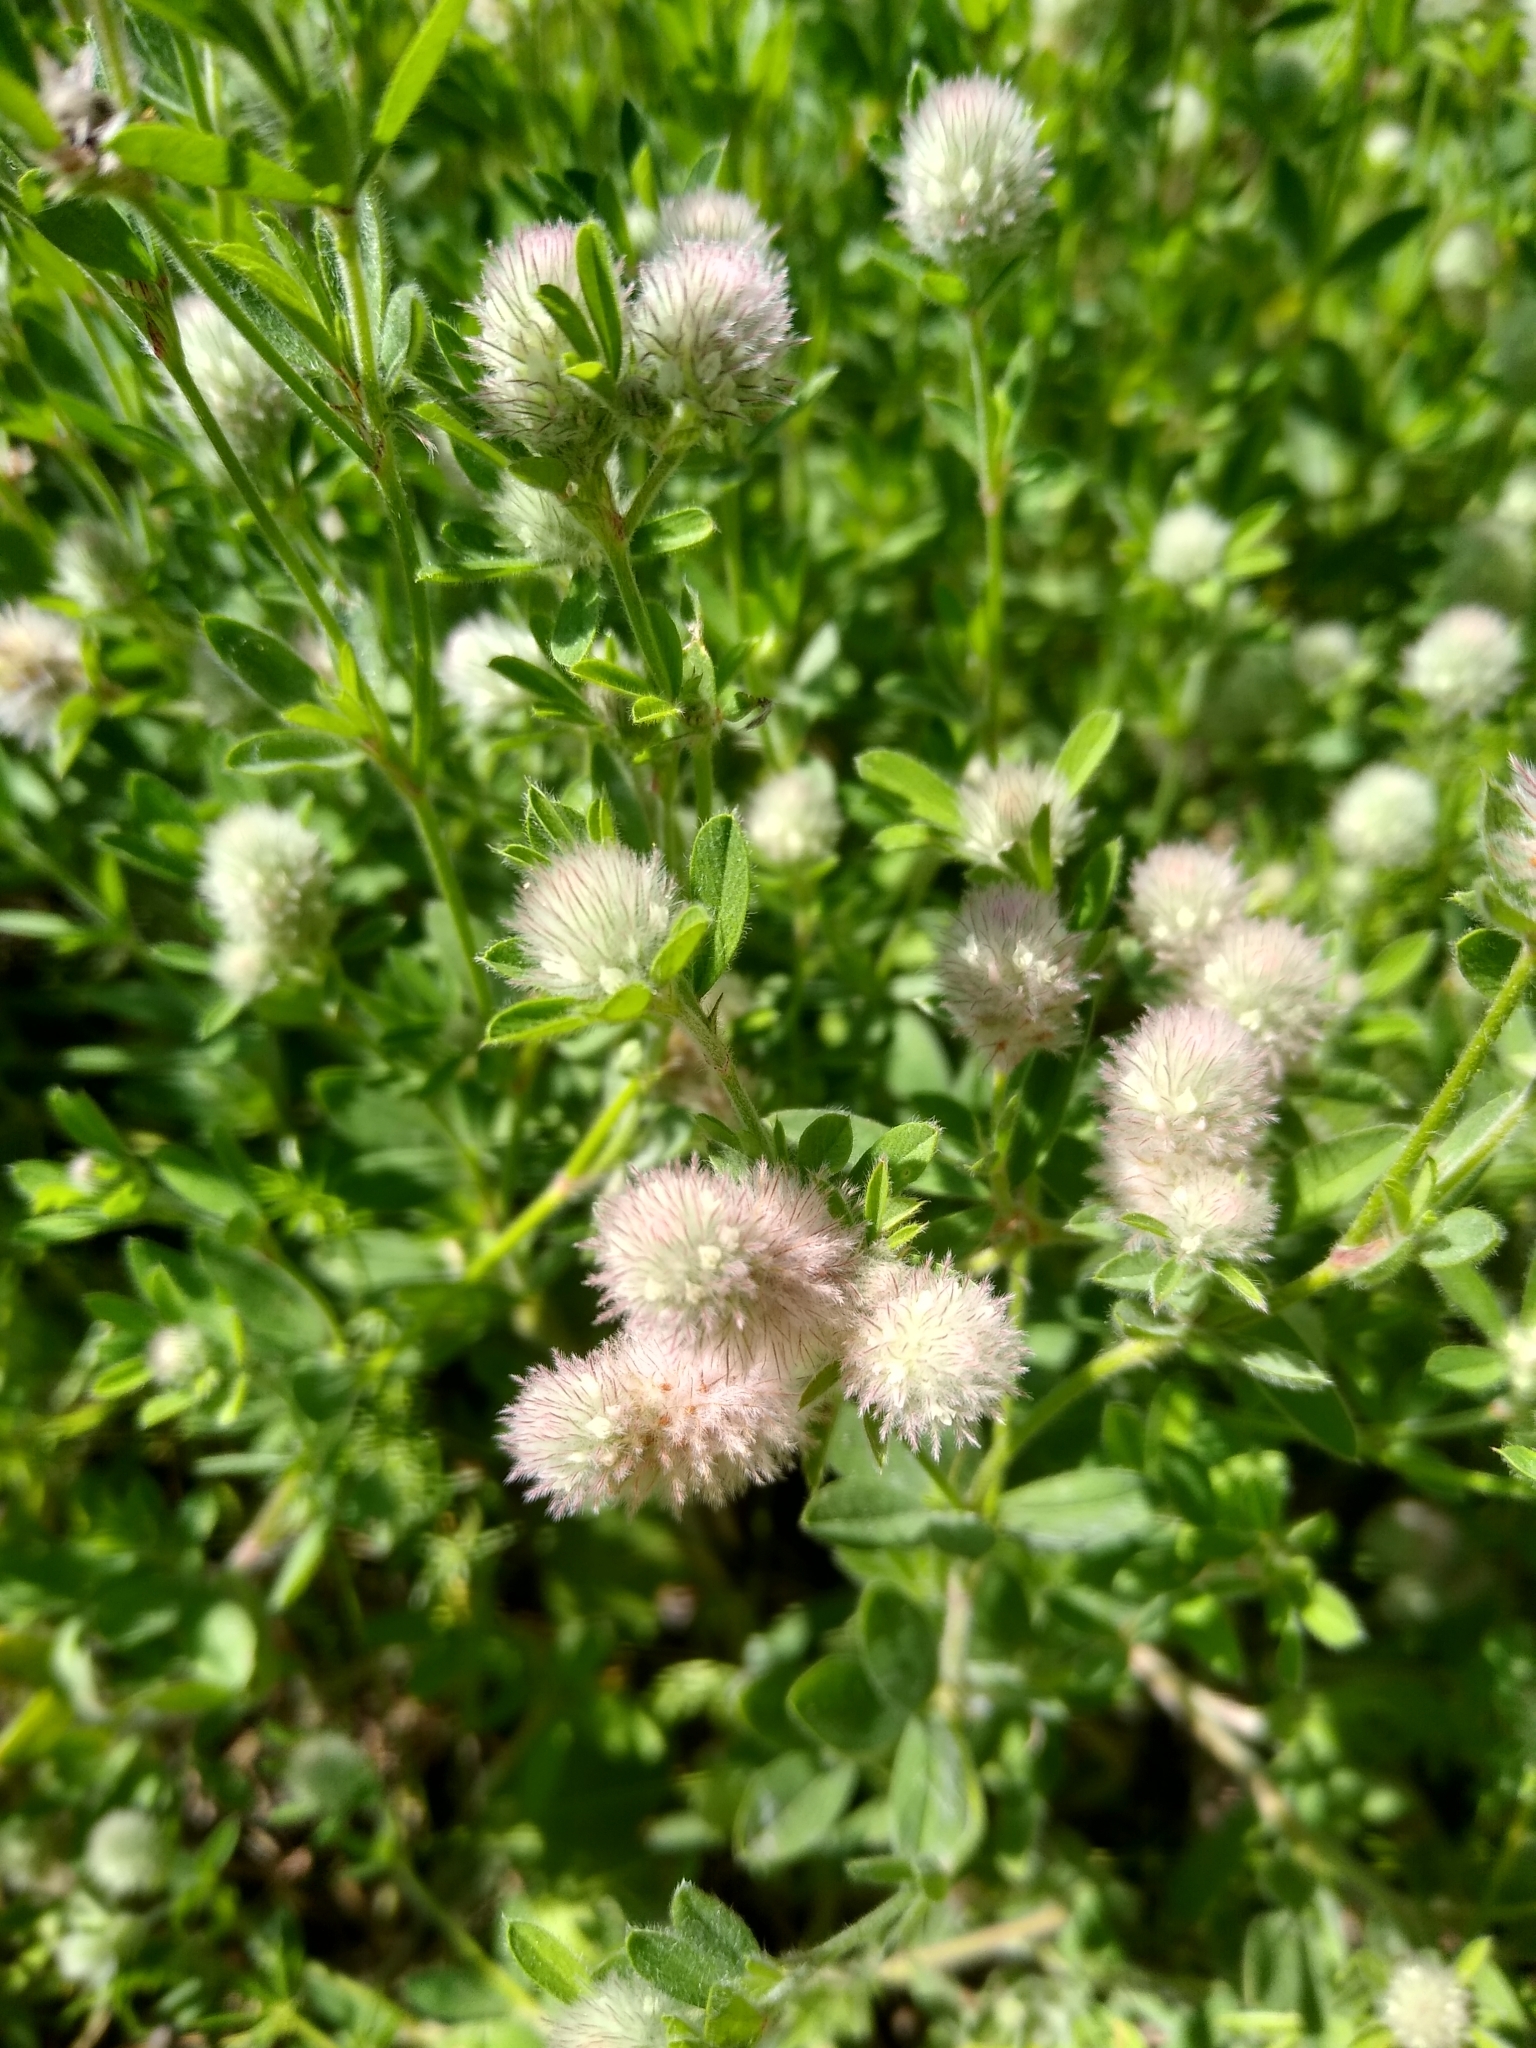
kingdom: Plantae
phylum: Tracheophyta
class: Magnoliopsida
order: Fabales
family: Fabaceae
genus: Trifolium
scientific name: Trifolium arvense
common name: Hare's-foot clover
